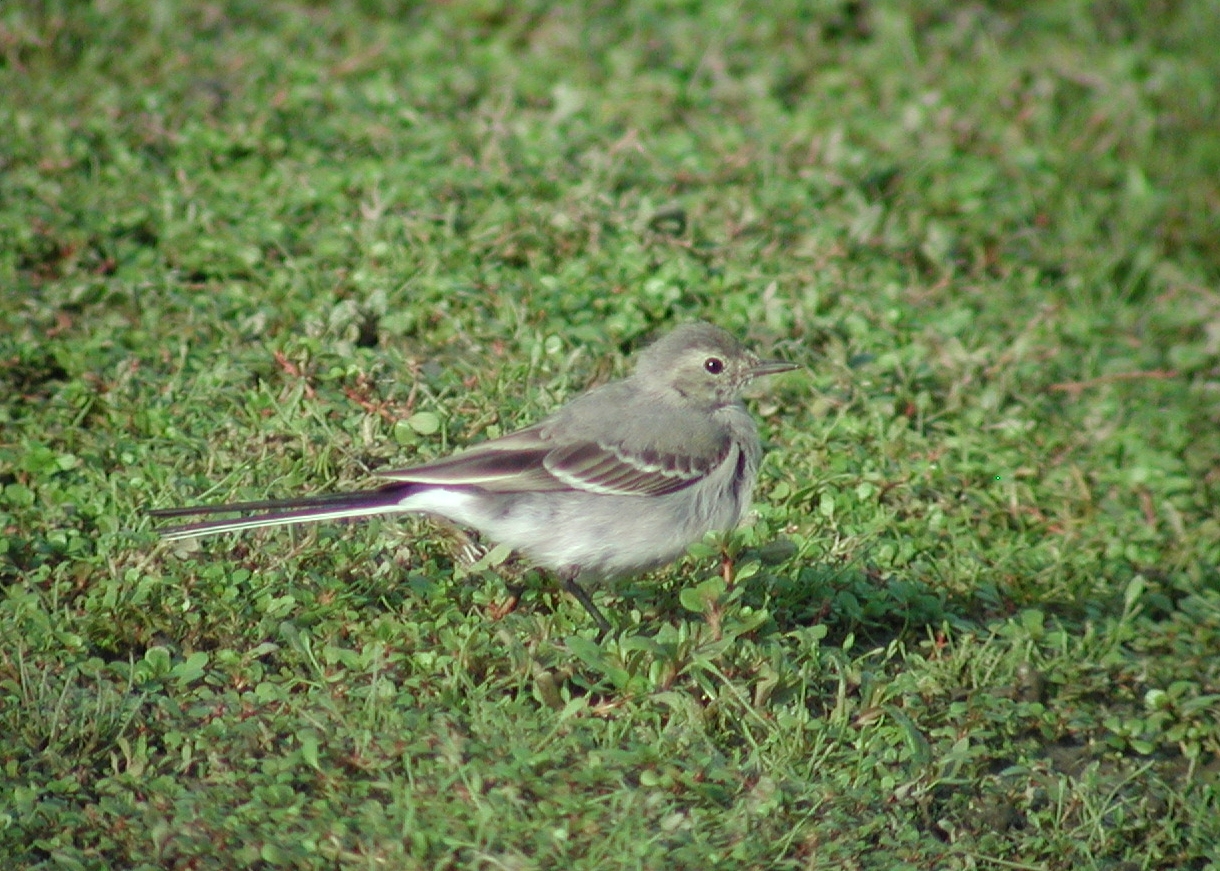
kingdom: Animalia
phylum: Chordata
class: Aves
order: Passeriformes
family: Motacillidae
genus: Motacilla
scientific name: Motacilla alba
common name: White wagtail
